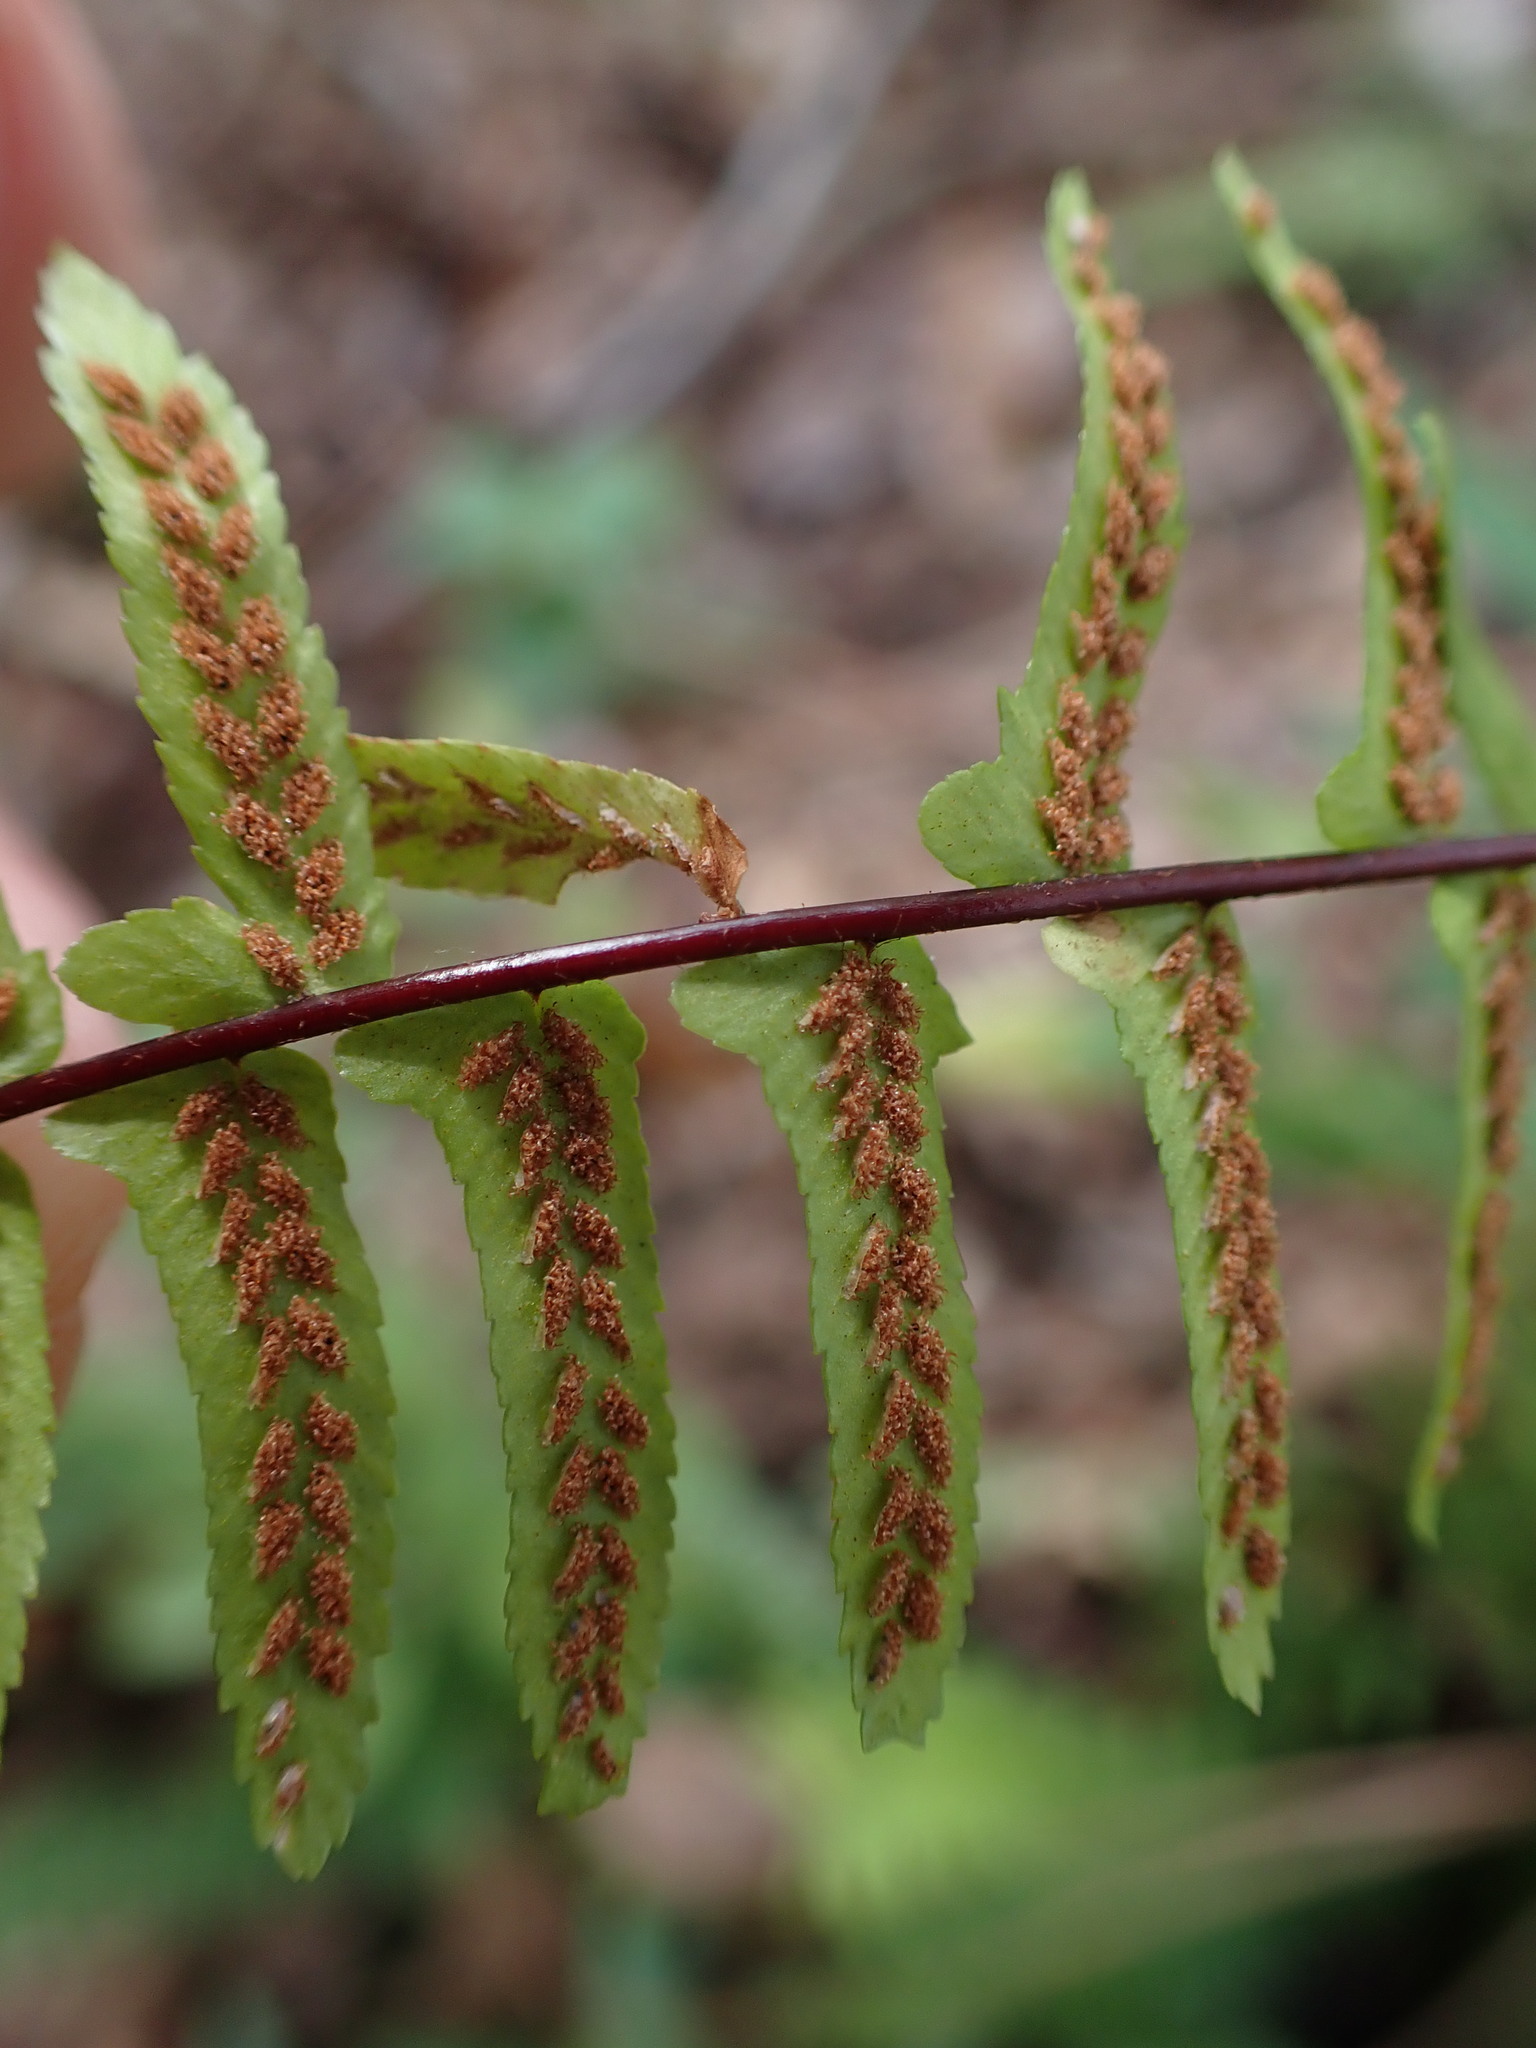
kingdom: Plantae
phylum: Tracheophyta
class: Polypodiopsida
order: Polypodiales
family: Aspleniaceae
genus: Asplenium
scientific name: Asplenium platyneuron
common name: Ebony spleenwort
